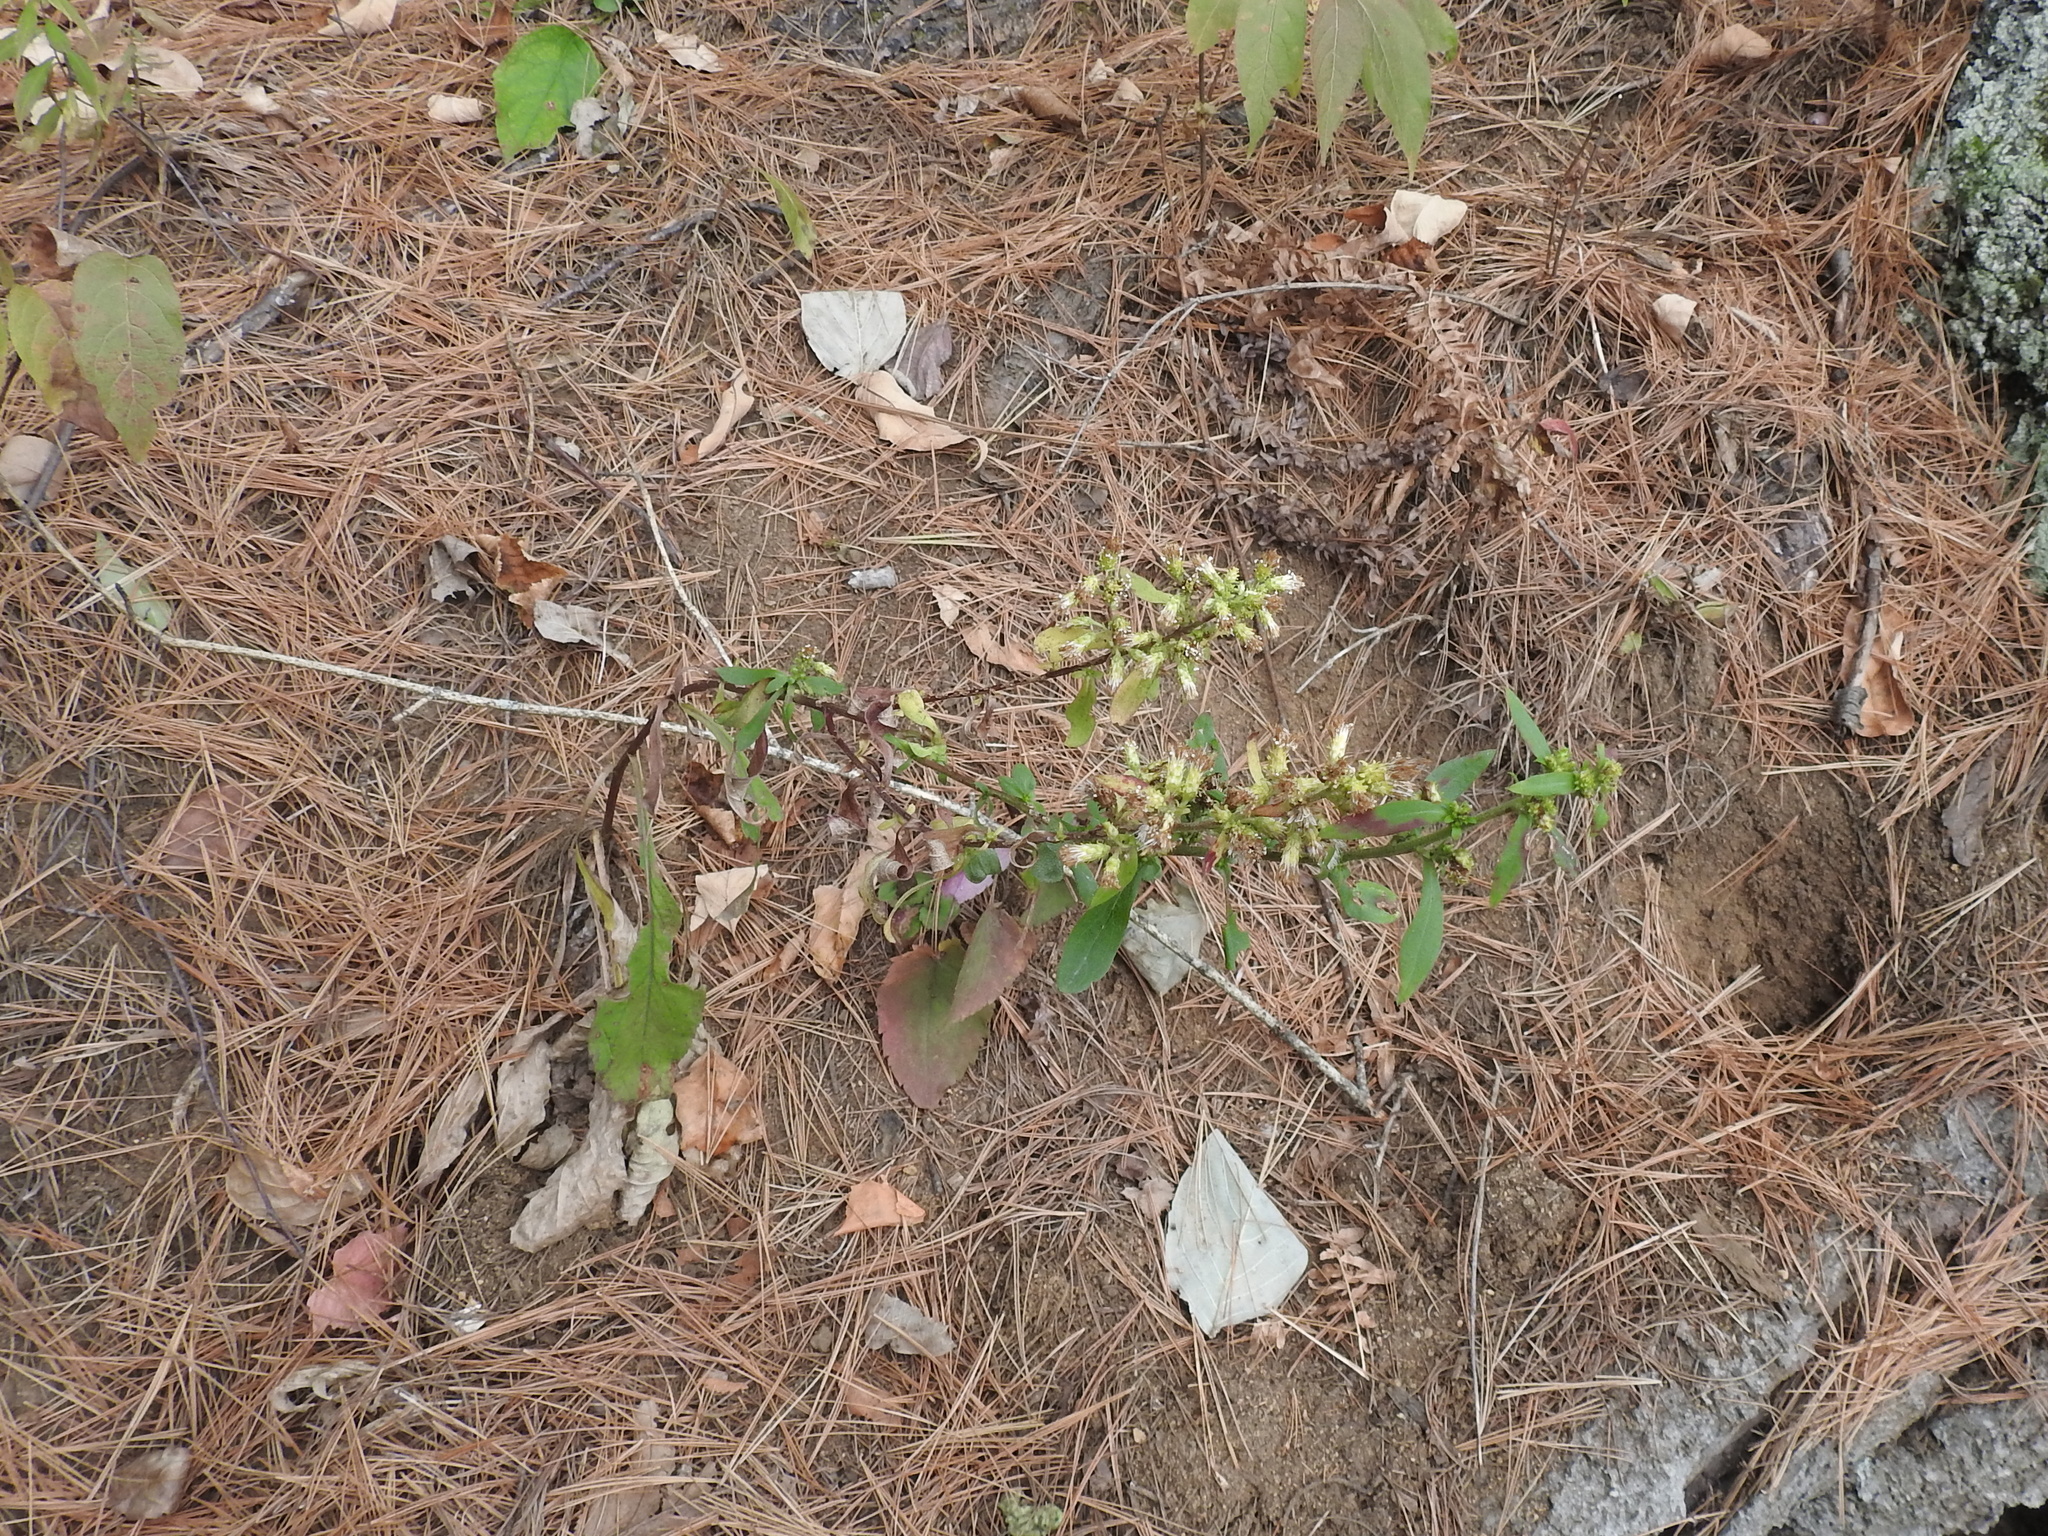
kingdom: Plantae
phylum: Tracheophyta
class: Magnoliopsida
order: Asterales
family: Asteraceae
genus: Symphyotrichum
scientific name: Symphyotrichum cordifolium
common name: Beeweed
